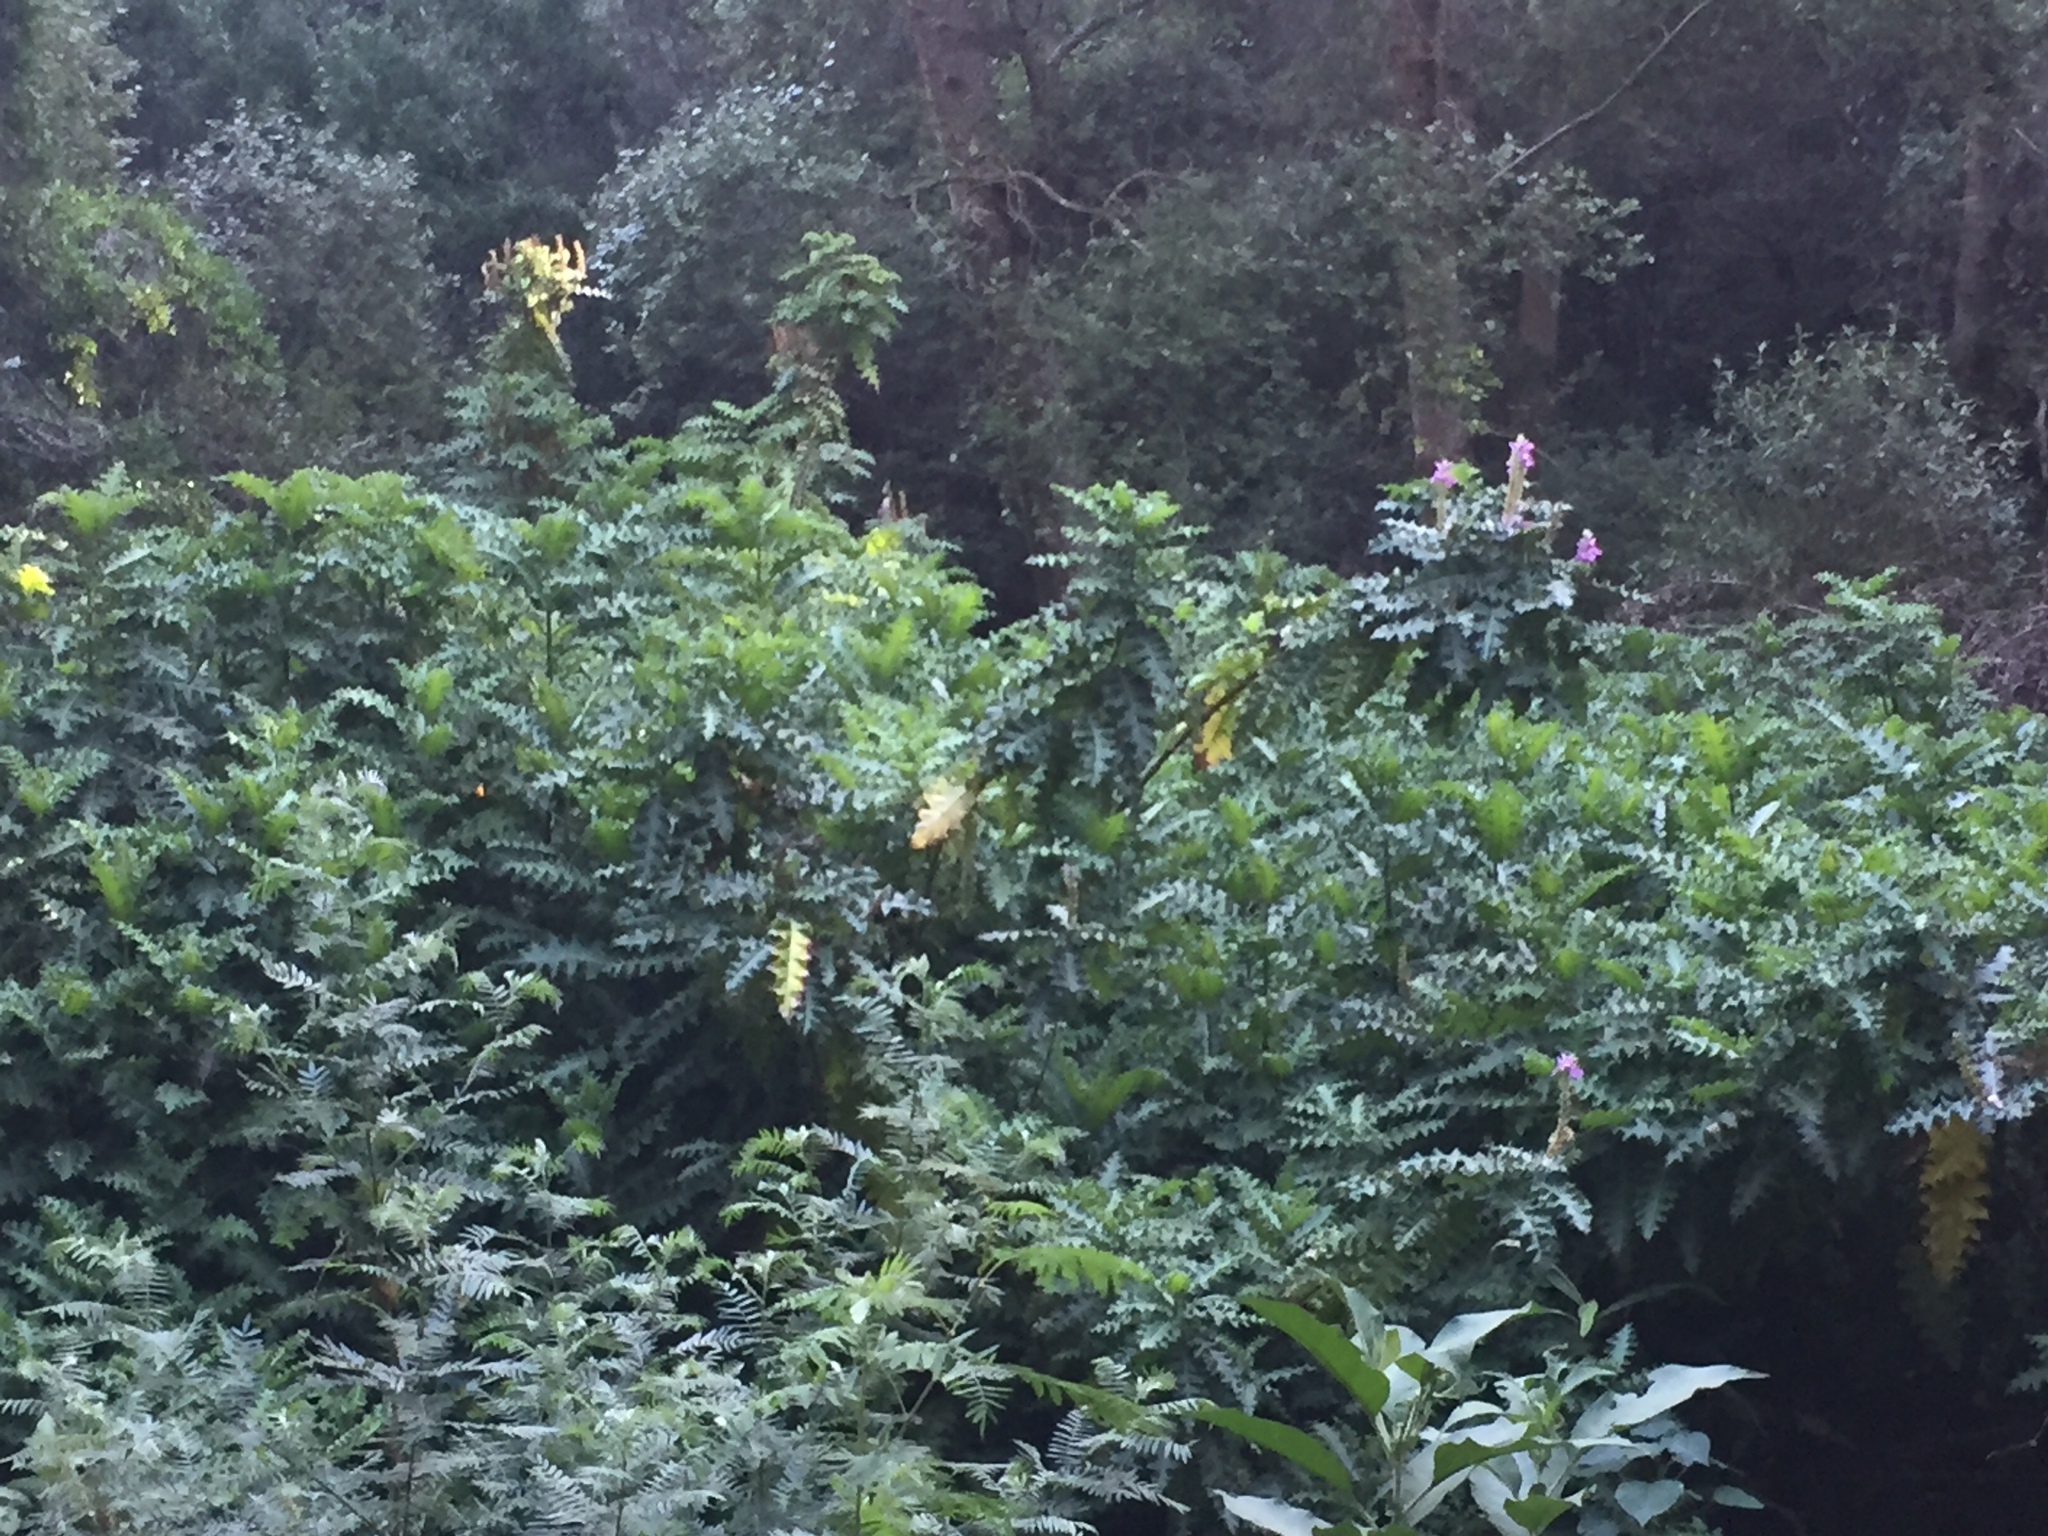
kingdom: Plantae
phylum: Tracheophyta
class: Magnoliopsida
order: Lamiales
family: Acanthaceae
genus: Acanthus
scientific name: Acanthus polystachyus
